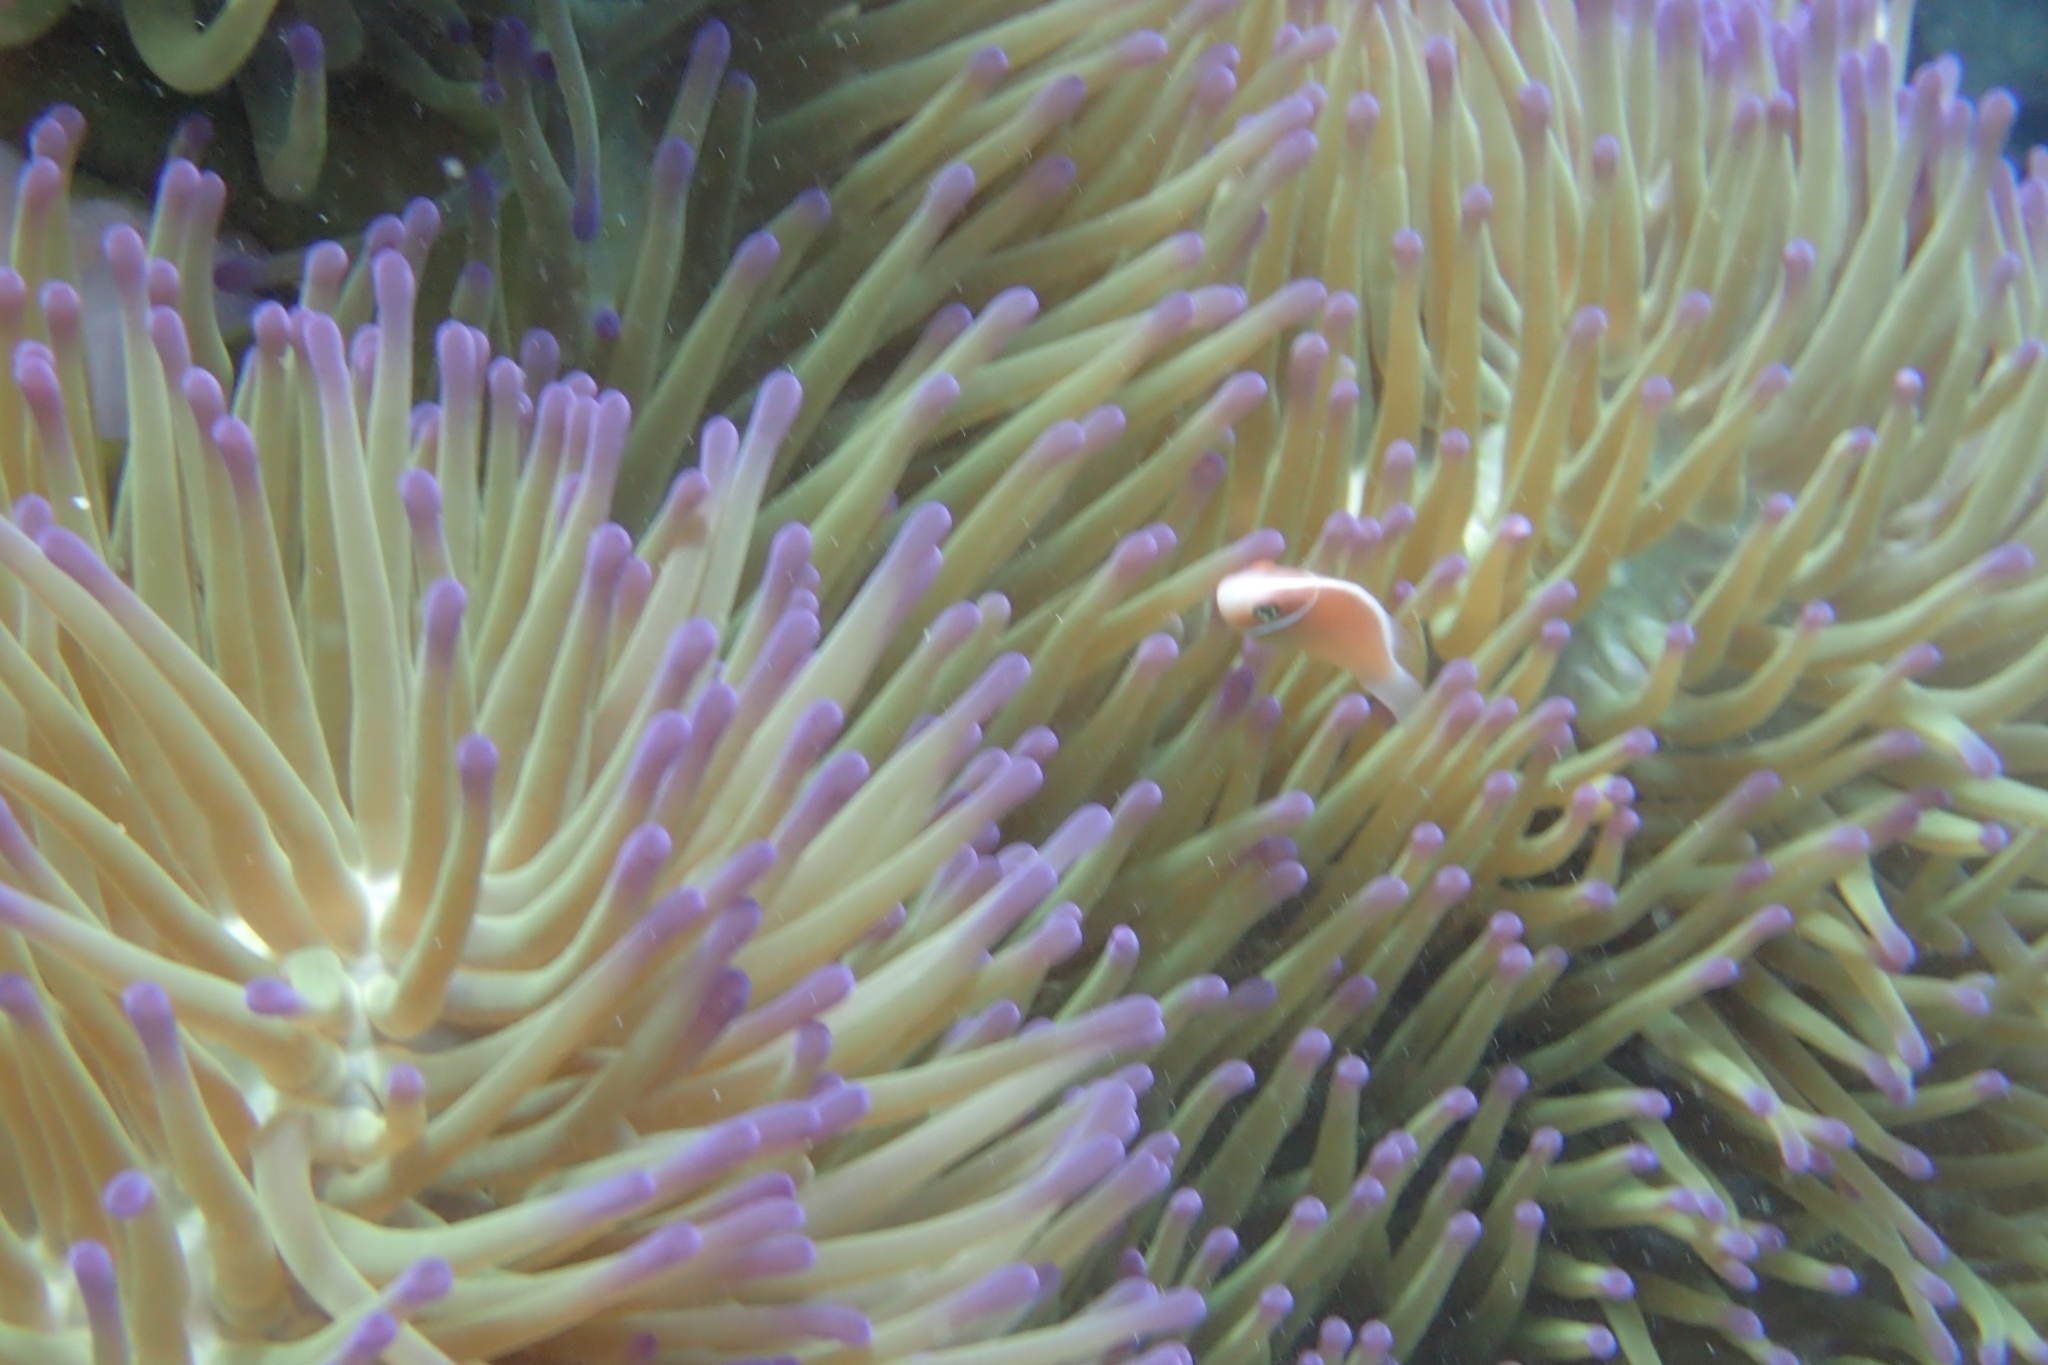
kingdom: Animalia
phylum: Chordata
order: Perciformes
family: Pomacentridae
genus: Amphiprion
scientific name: Amphiprion perideraion
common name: Pink anemonefish
